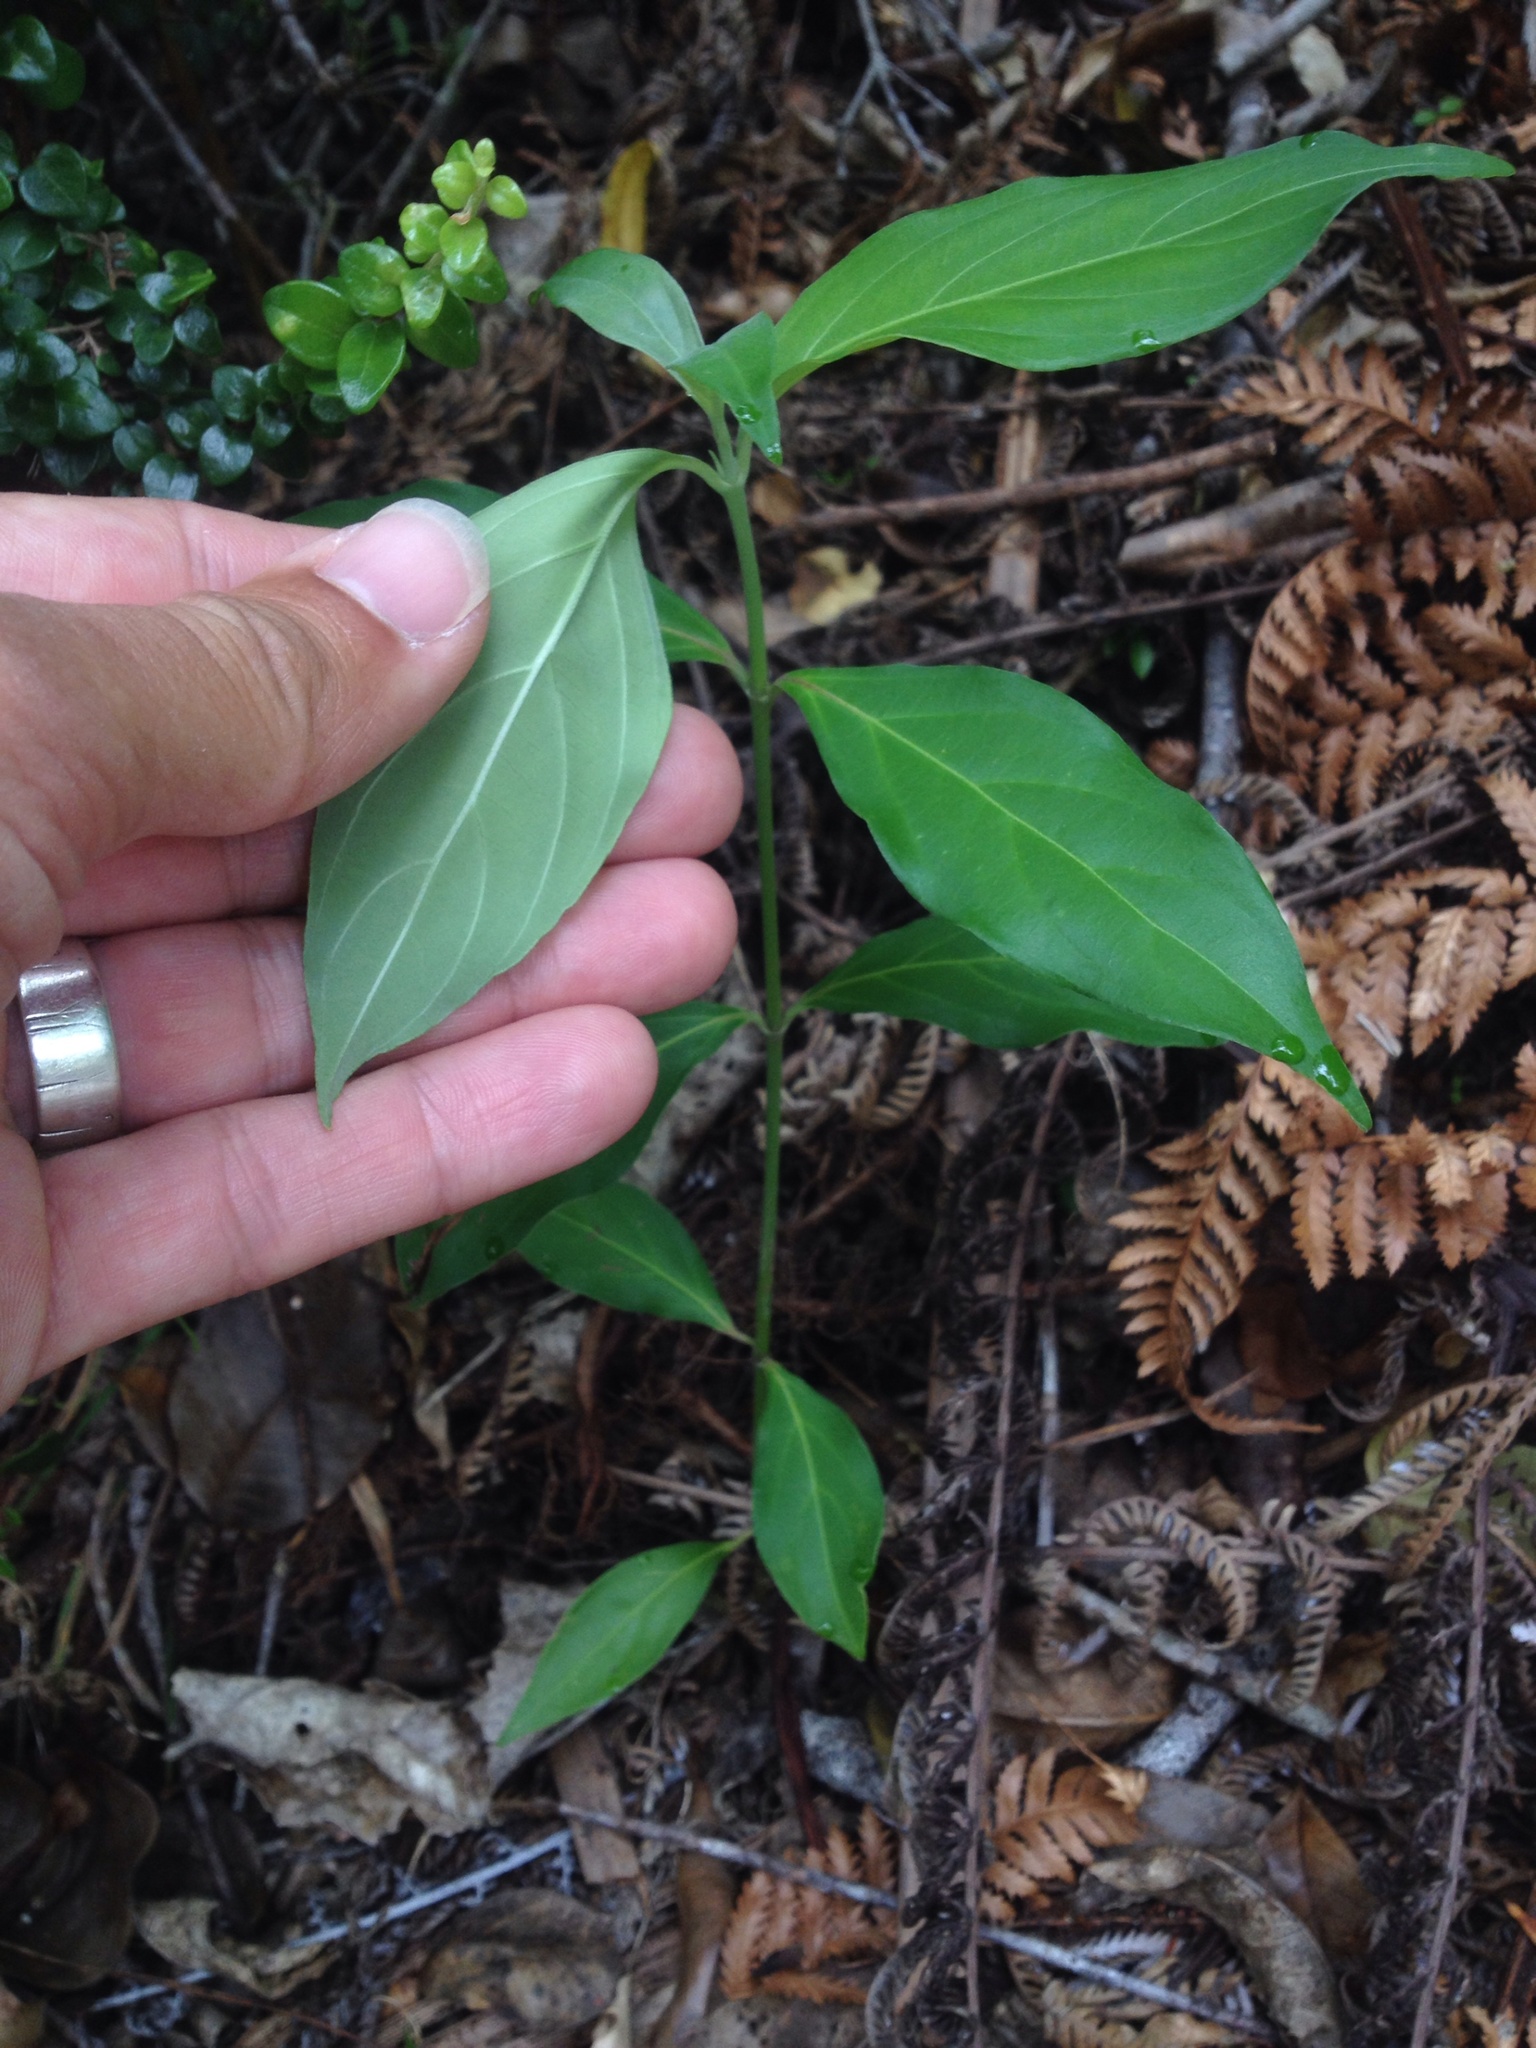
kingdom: Plantae
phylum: Tracheophyta
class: Magnoliopsida
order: Cornales
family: Cornaceae
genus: Cornus
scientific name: Cornus capitata
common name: Bentham's cornel
